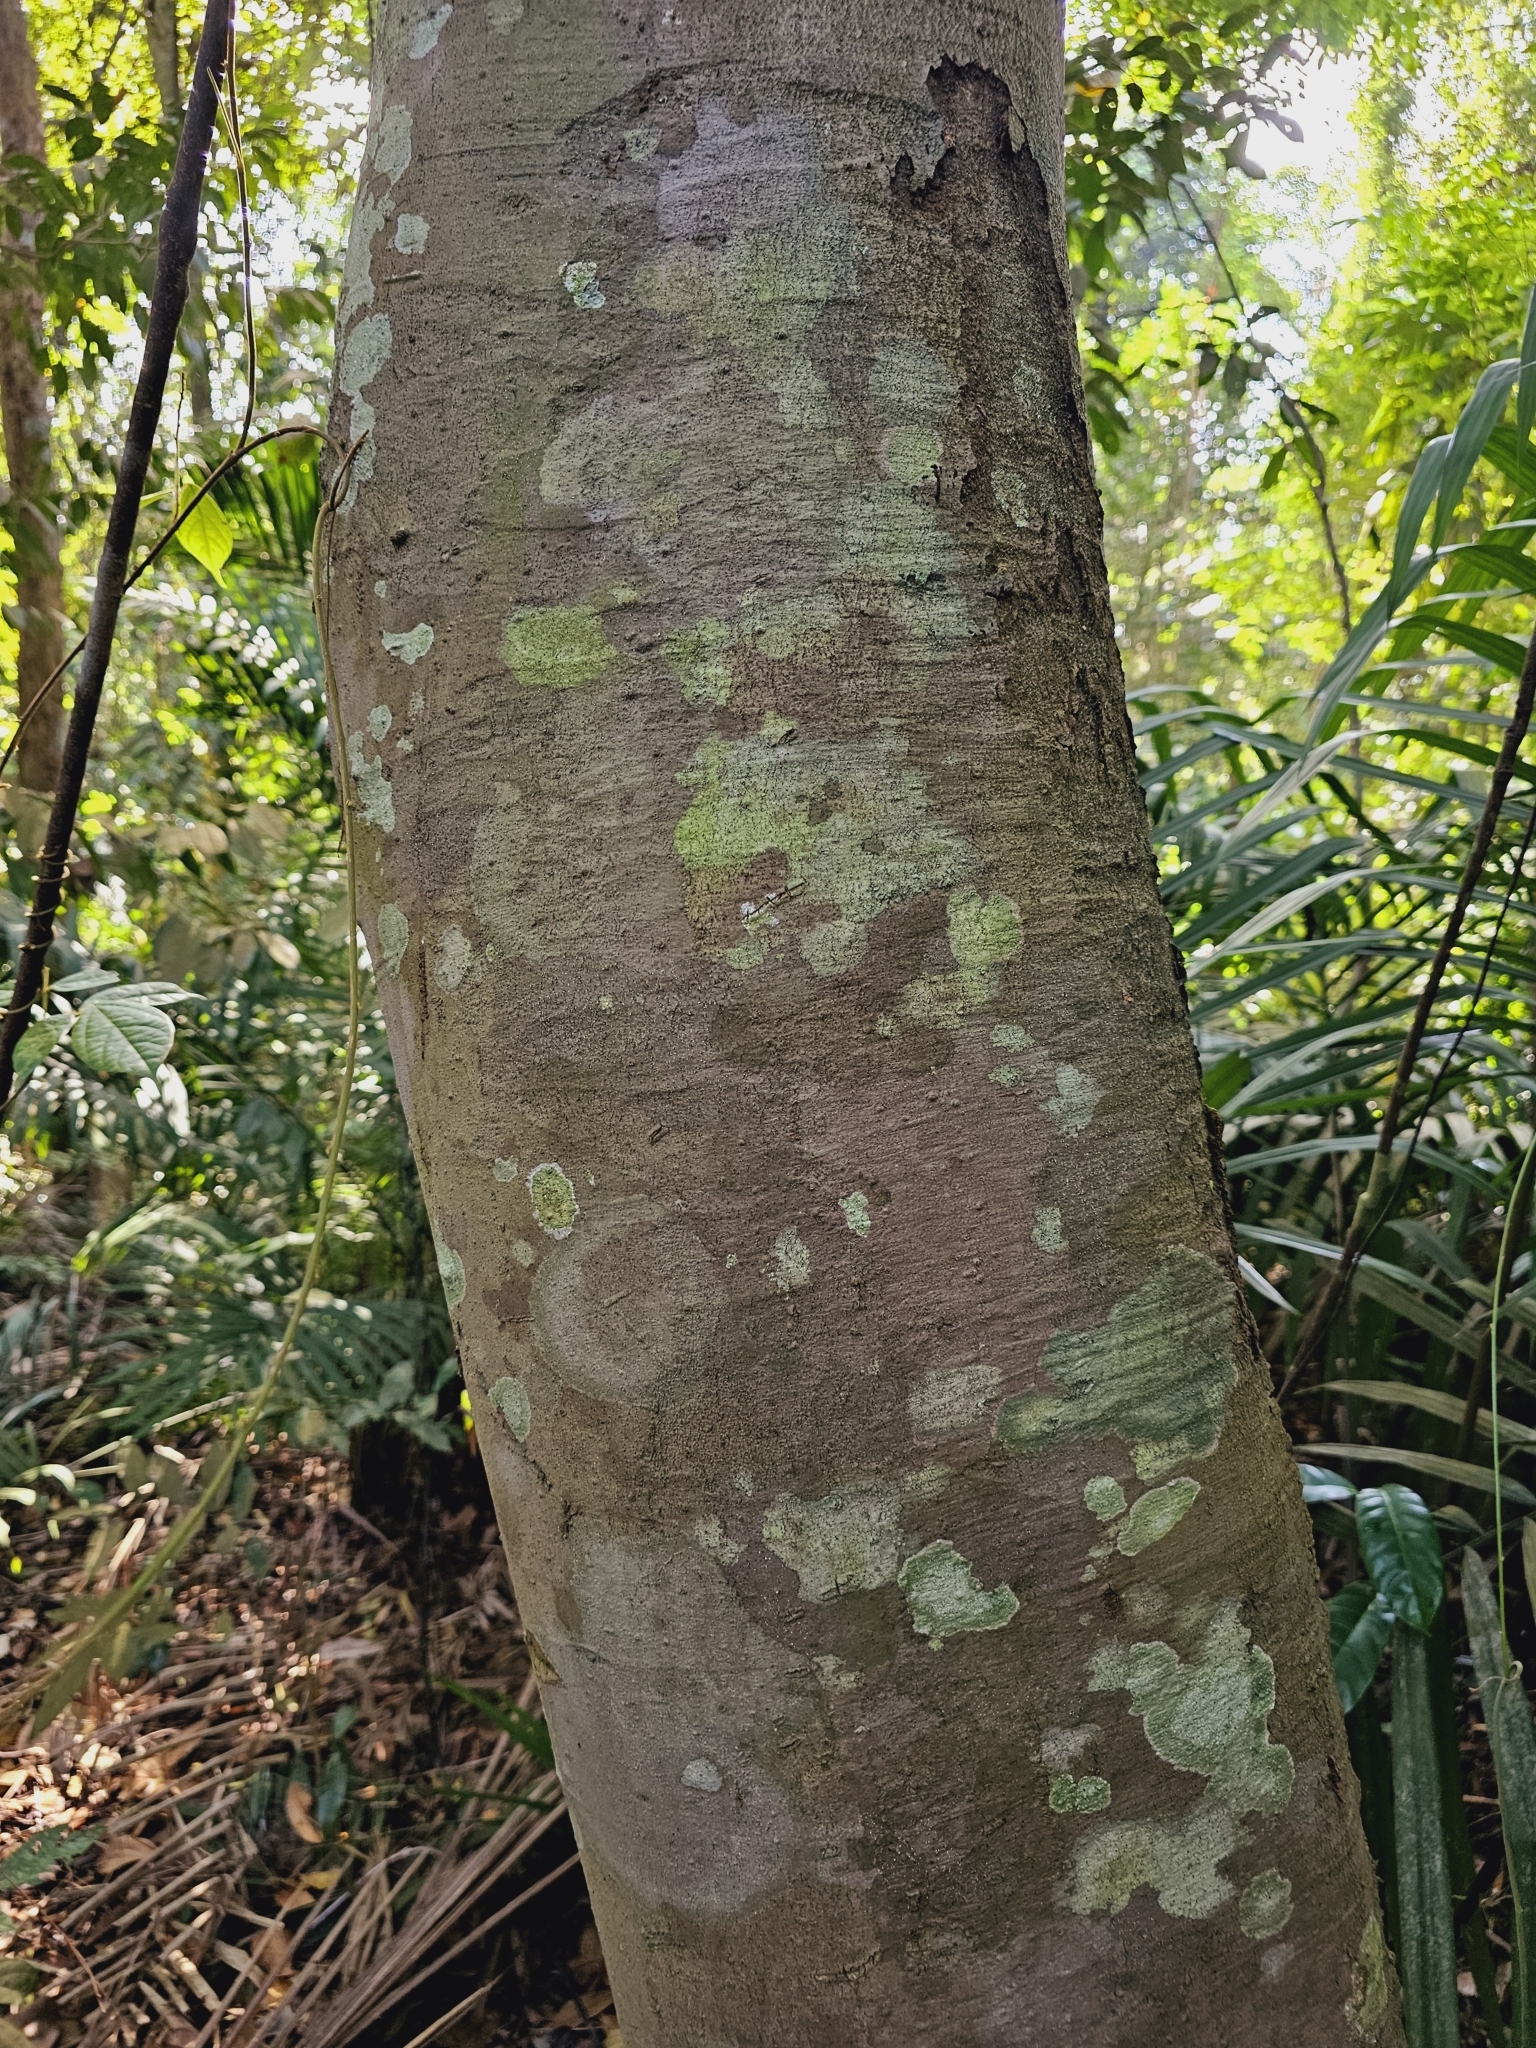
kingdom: Plantae
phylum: Tracheophyta
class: Magnoliopsida
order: Malvales
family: Malvaceae
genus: Durio
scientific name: Durio singaporensis
